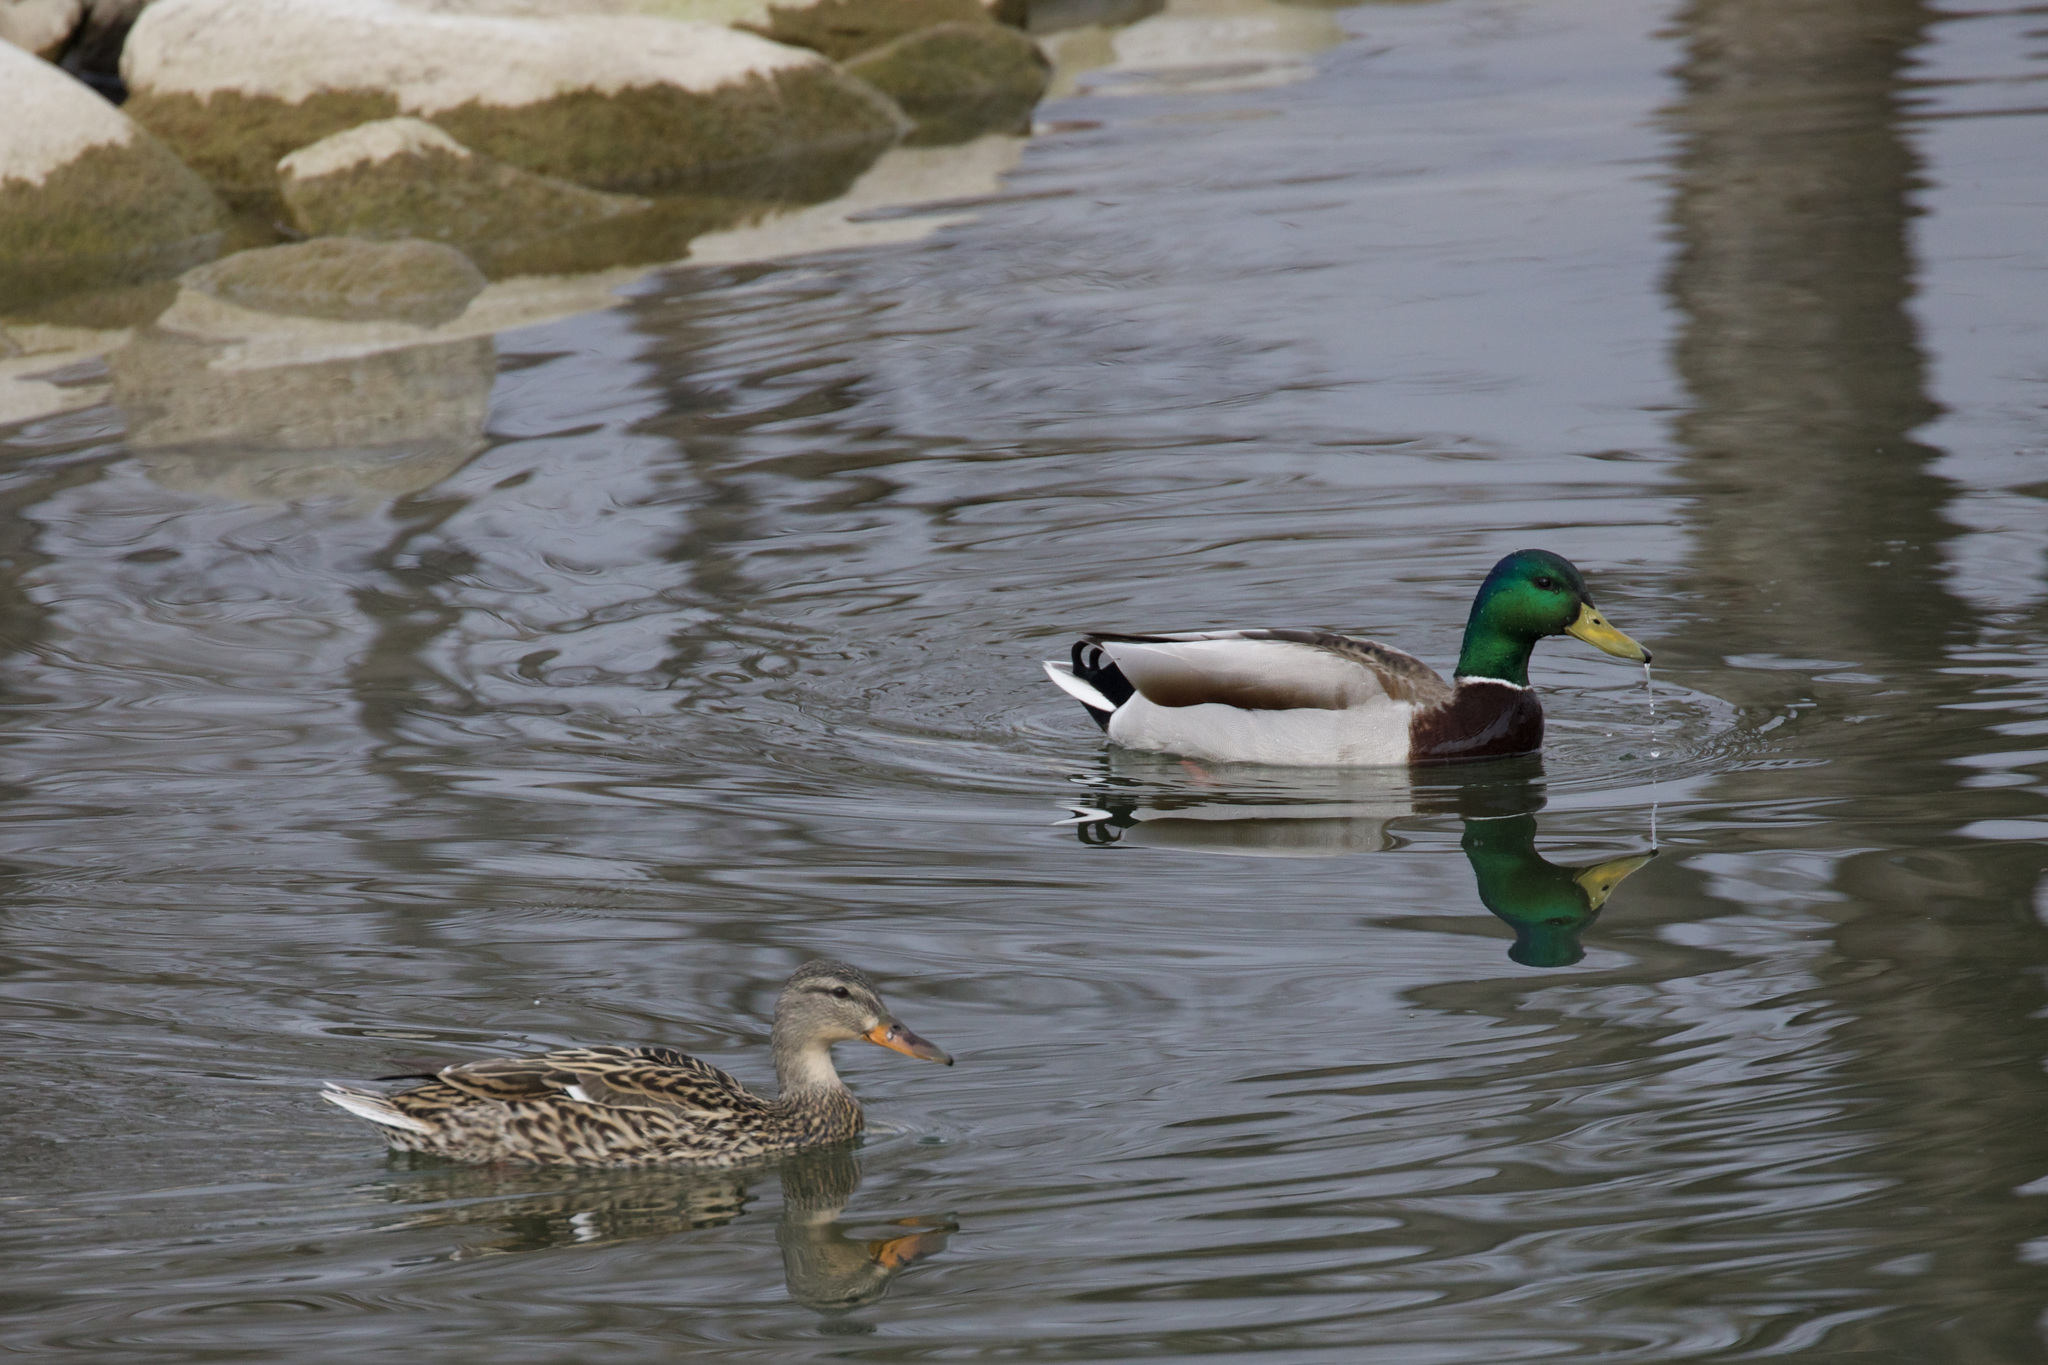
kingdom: Animalia
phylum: Chordata
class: Aves
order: Anseriformes
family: Anatidae
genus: Anas
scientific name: Anas platyrhynchos
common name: Mallard
